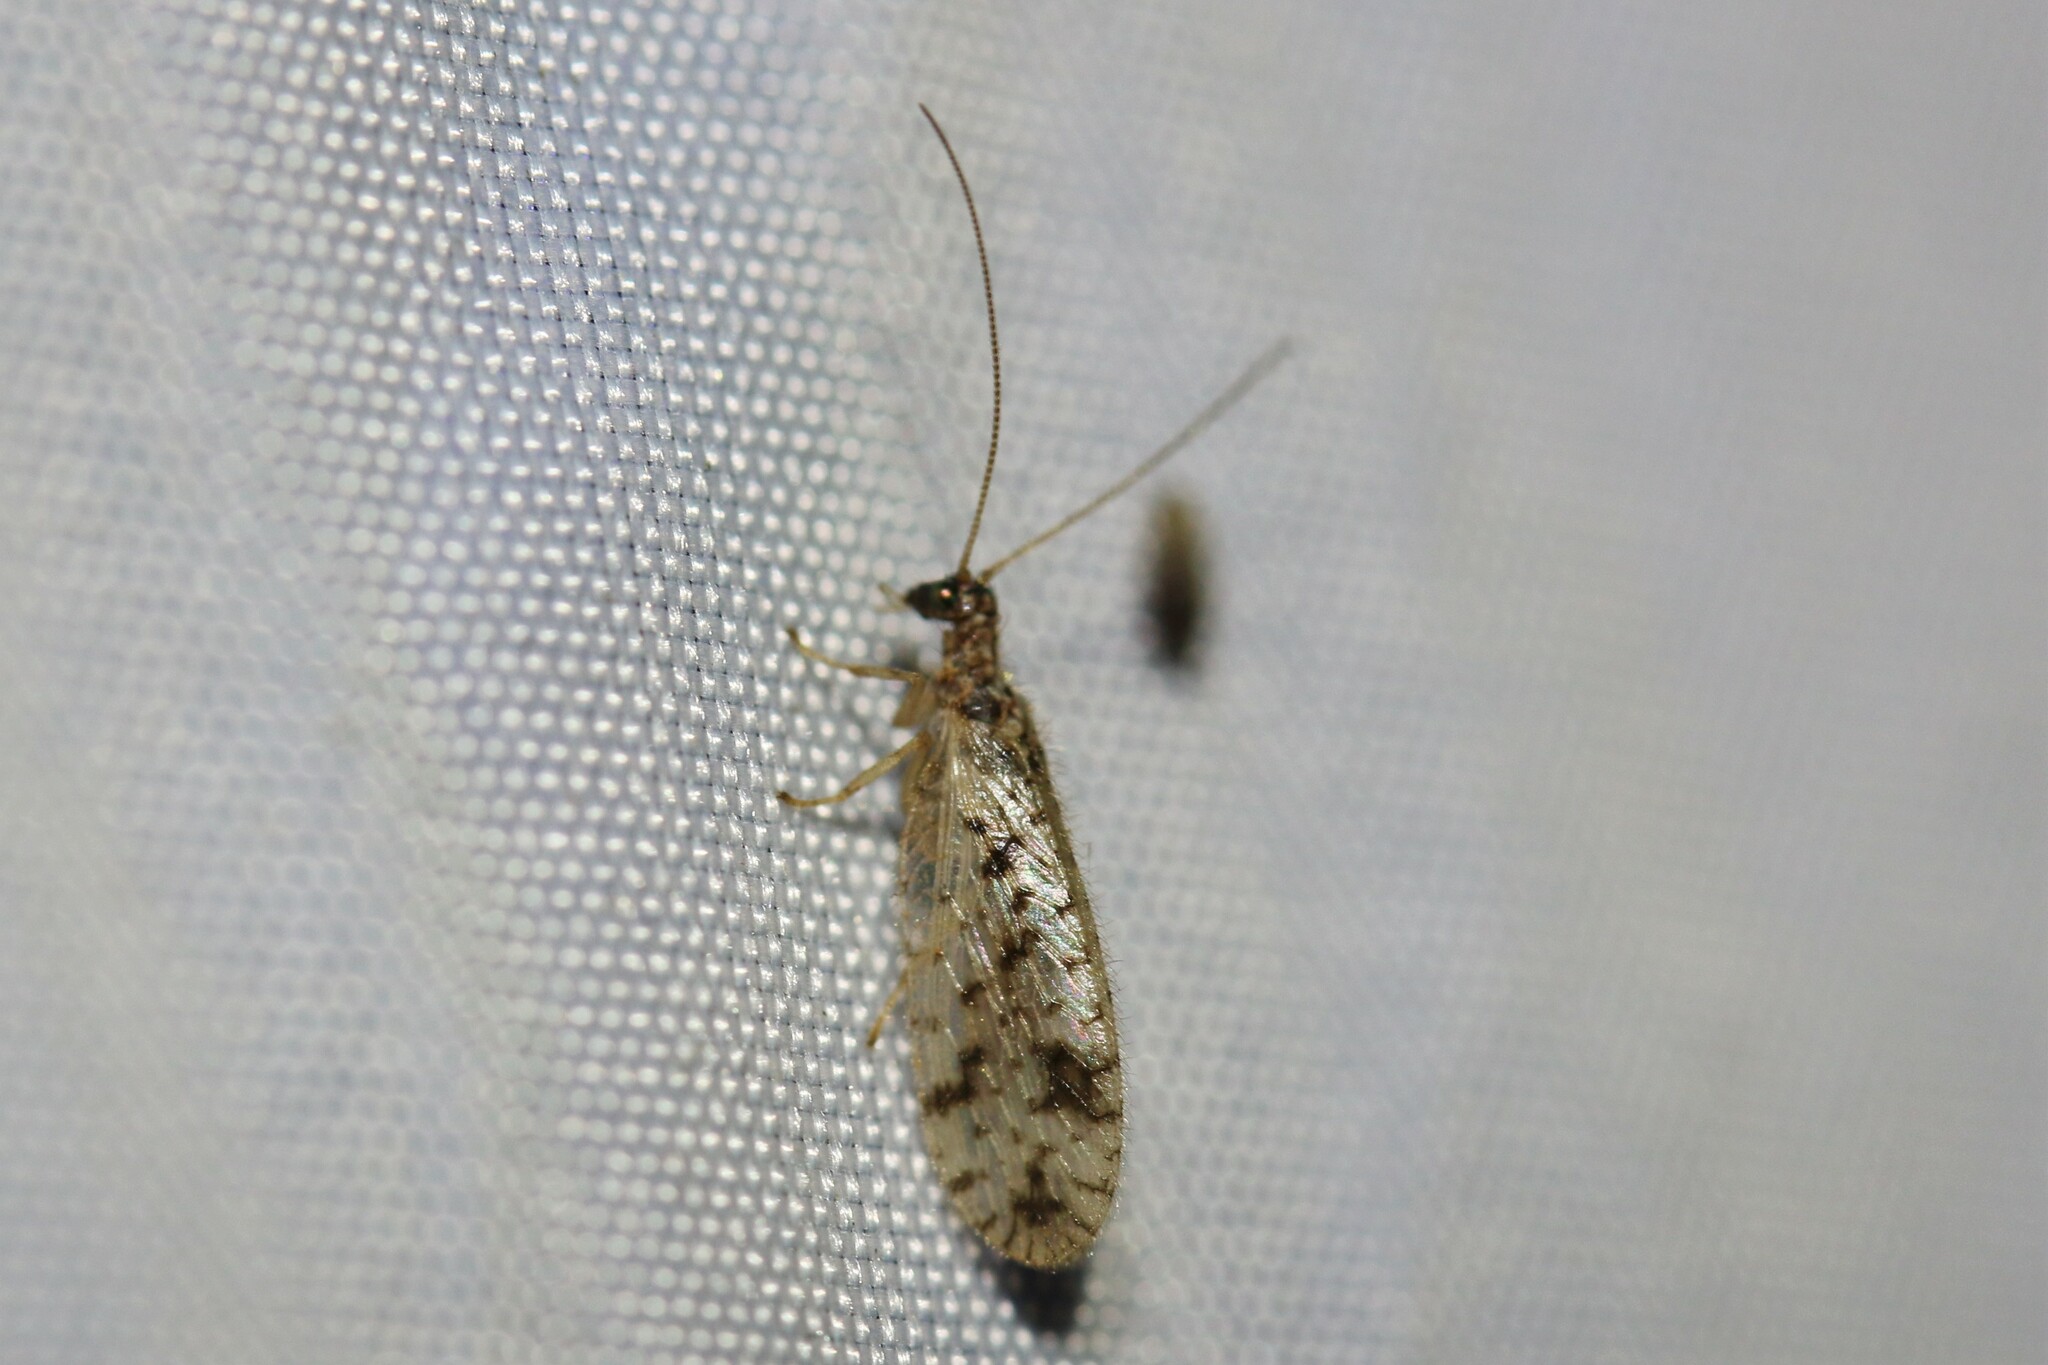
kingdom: Animalia
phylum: Arthropoda
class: Insecta
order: Neuroptera
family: Hemerobiidae
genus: Micromus
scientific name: Micromus variegatus
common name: Brown lacewing
